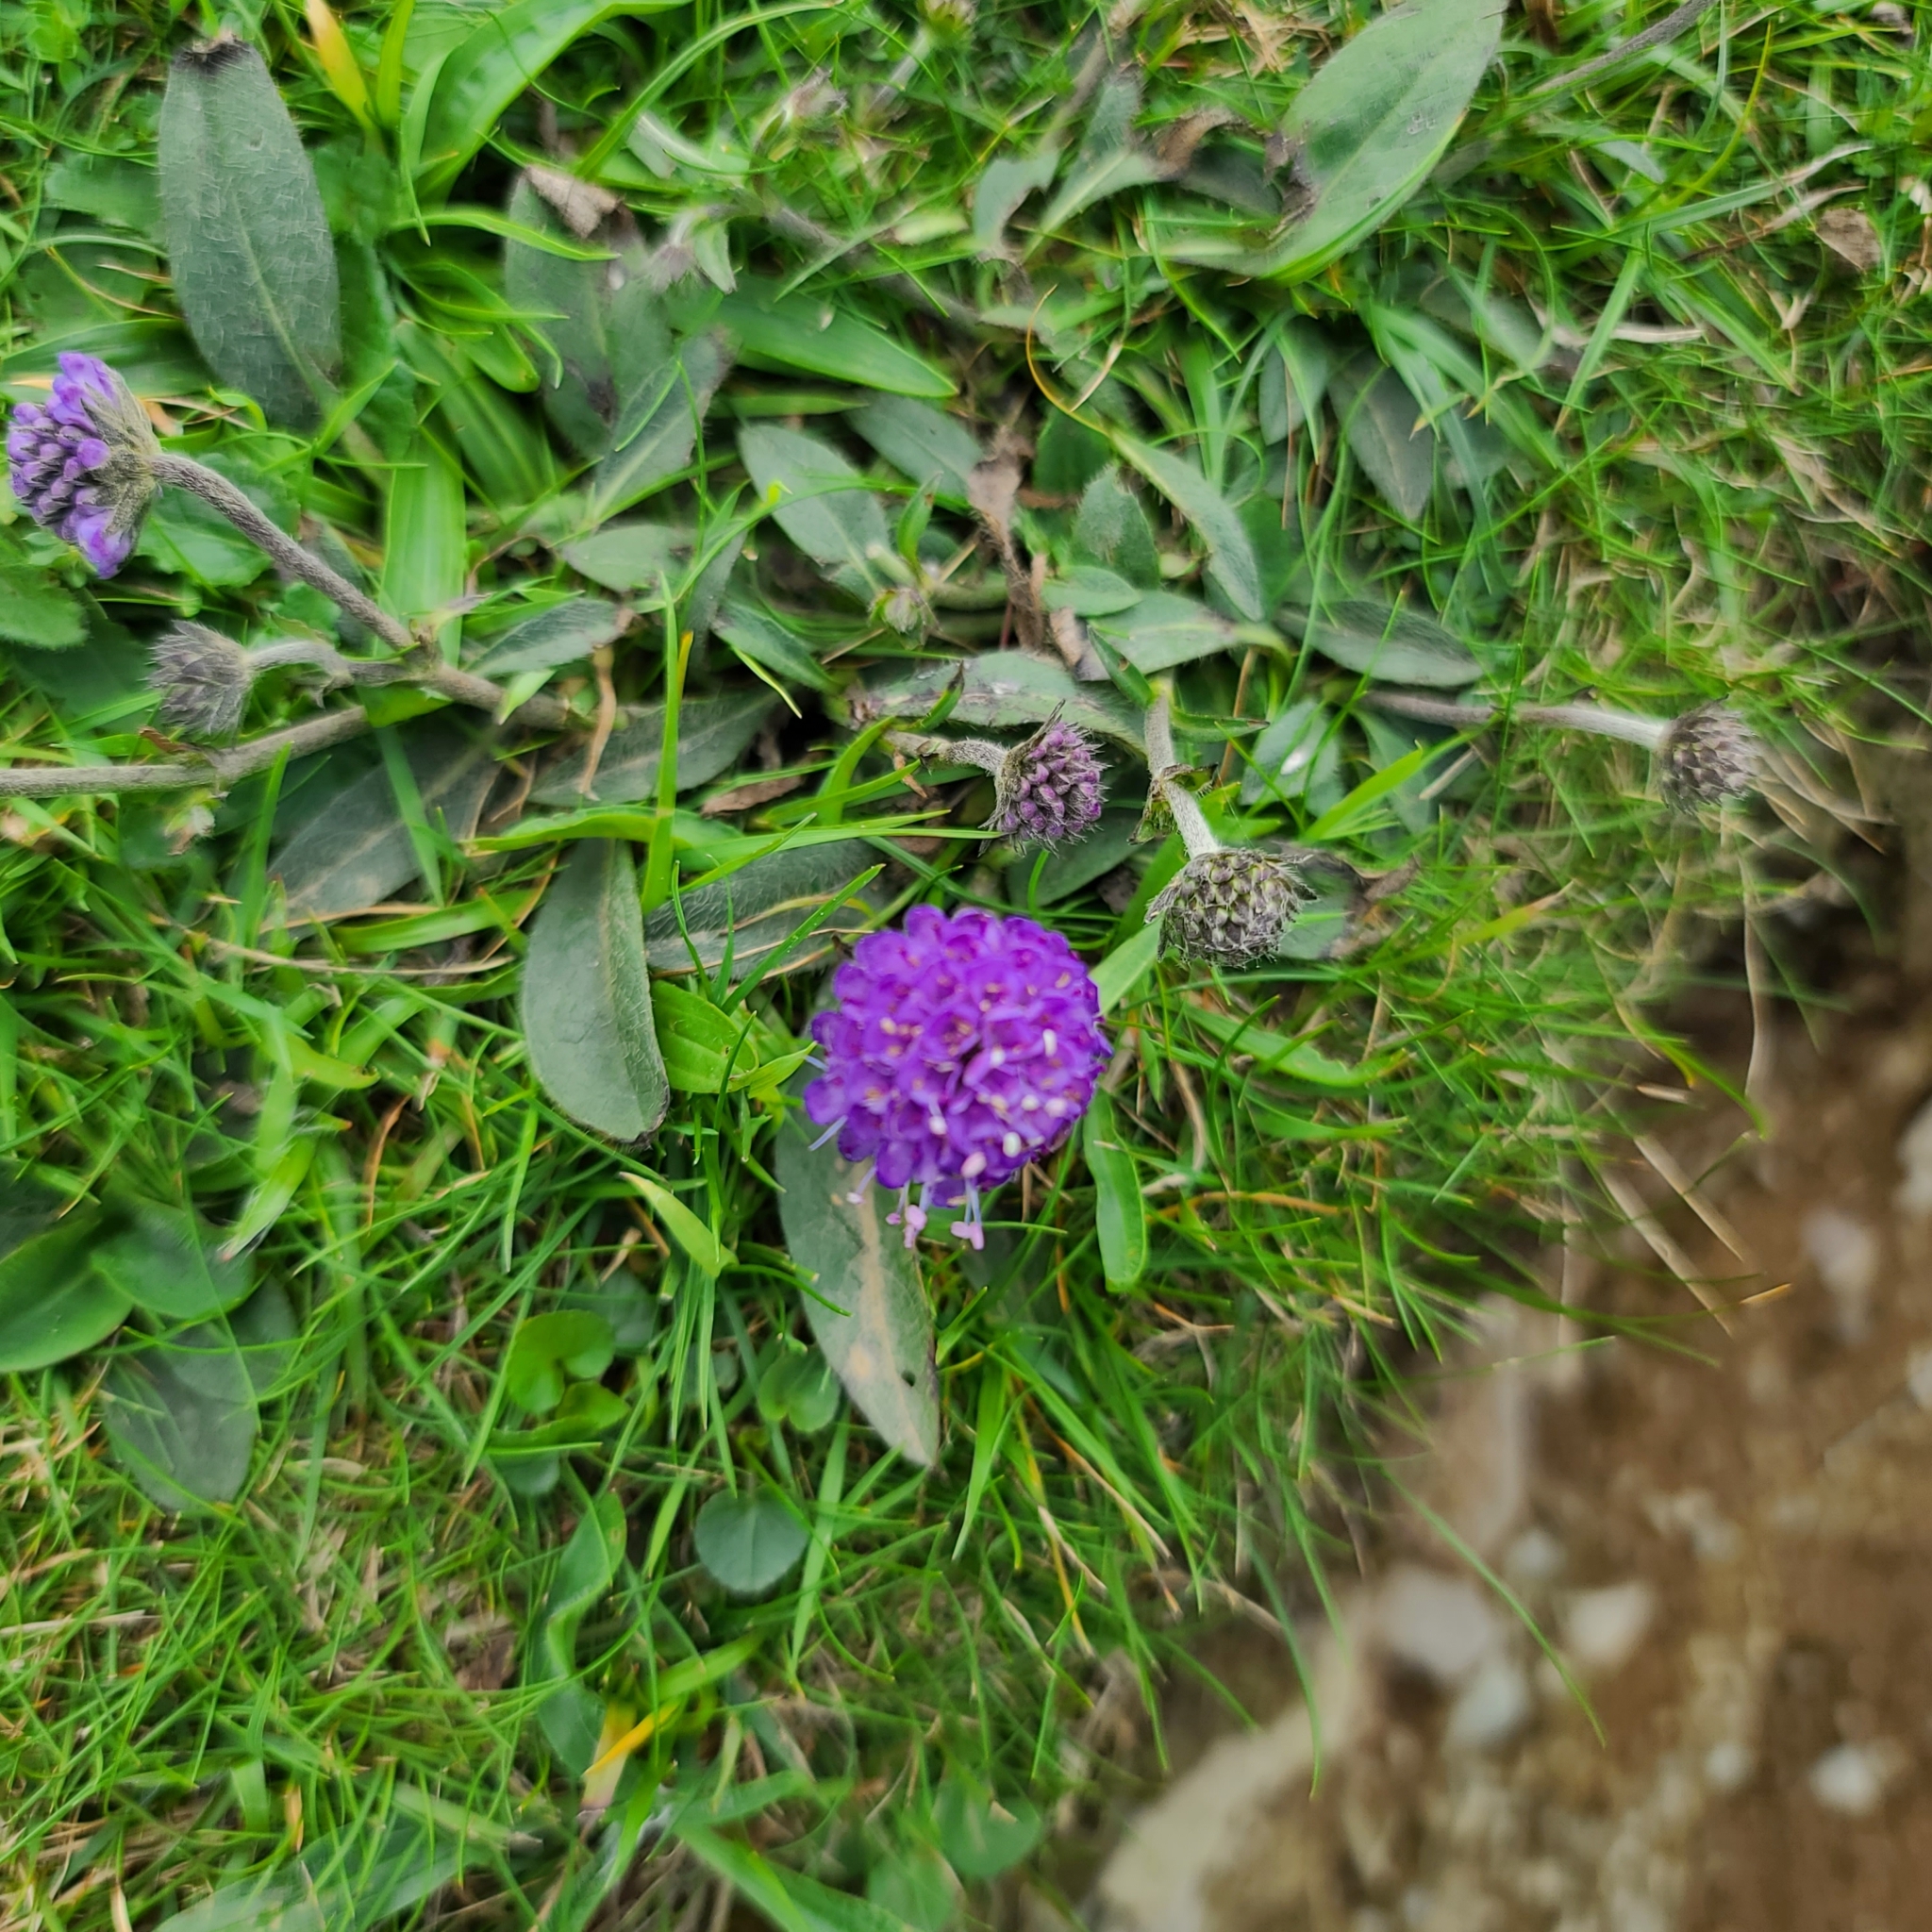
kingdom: Plantae
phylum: Tracheophyta
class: Magnoliopsida
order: Dipsacales
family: Caprifoliaceae
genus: Succisa
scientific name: Succisa pratensis
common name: Devil's-bit
